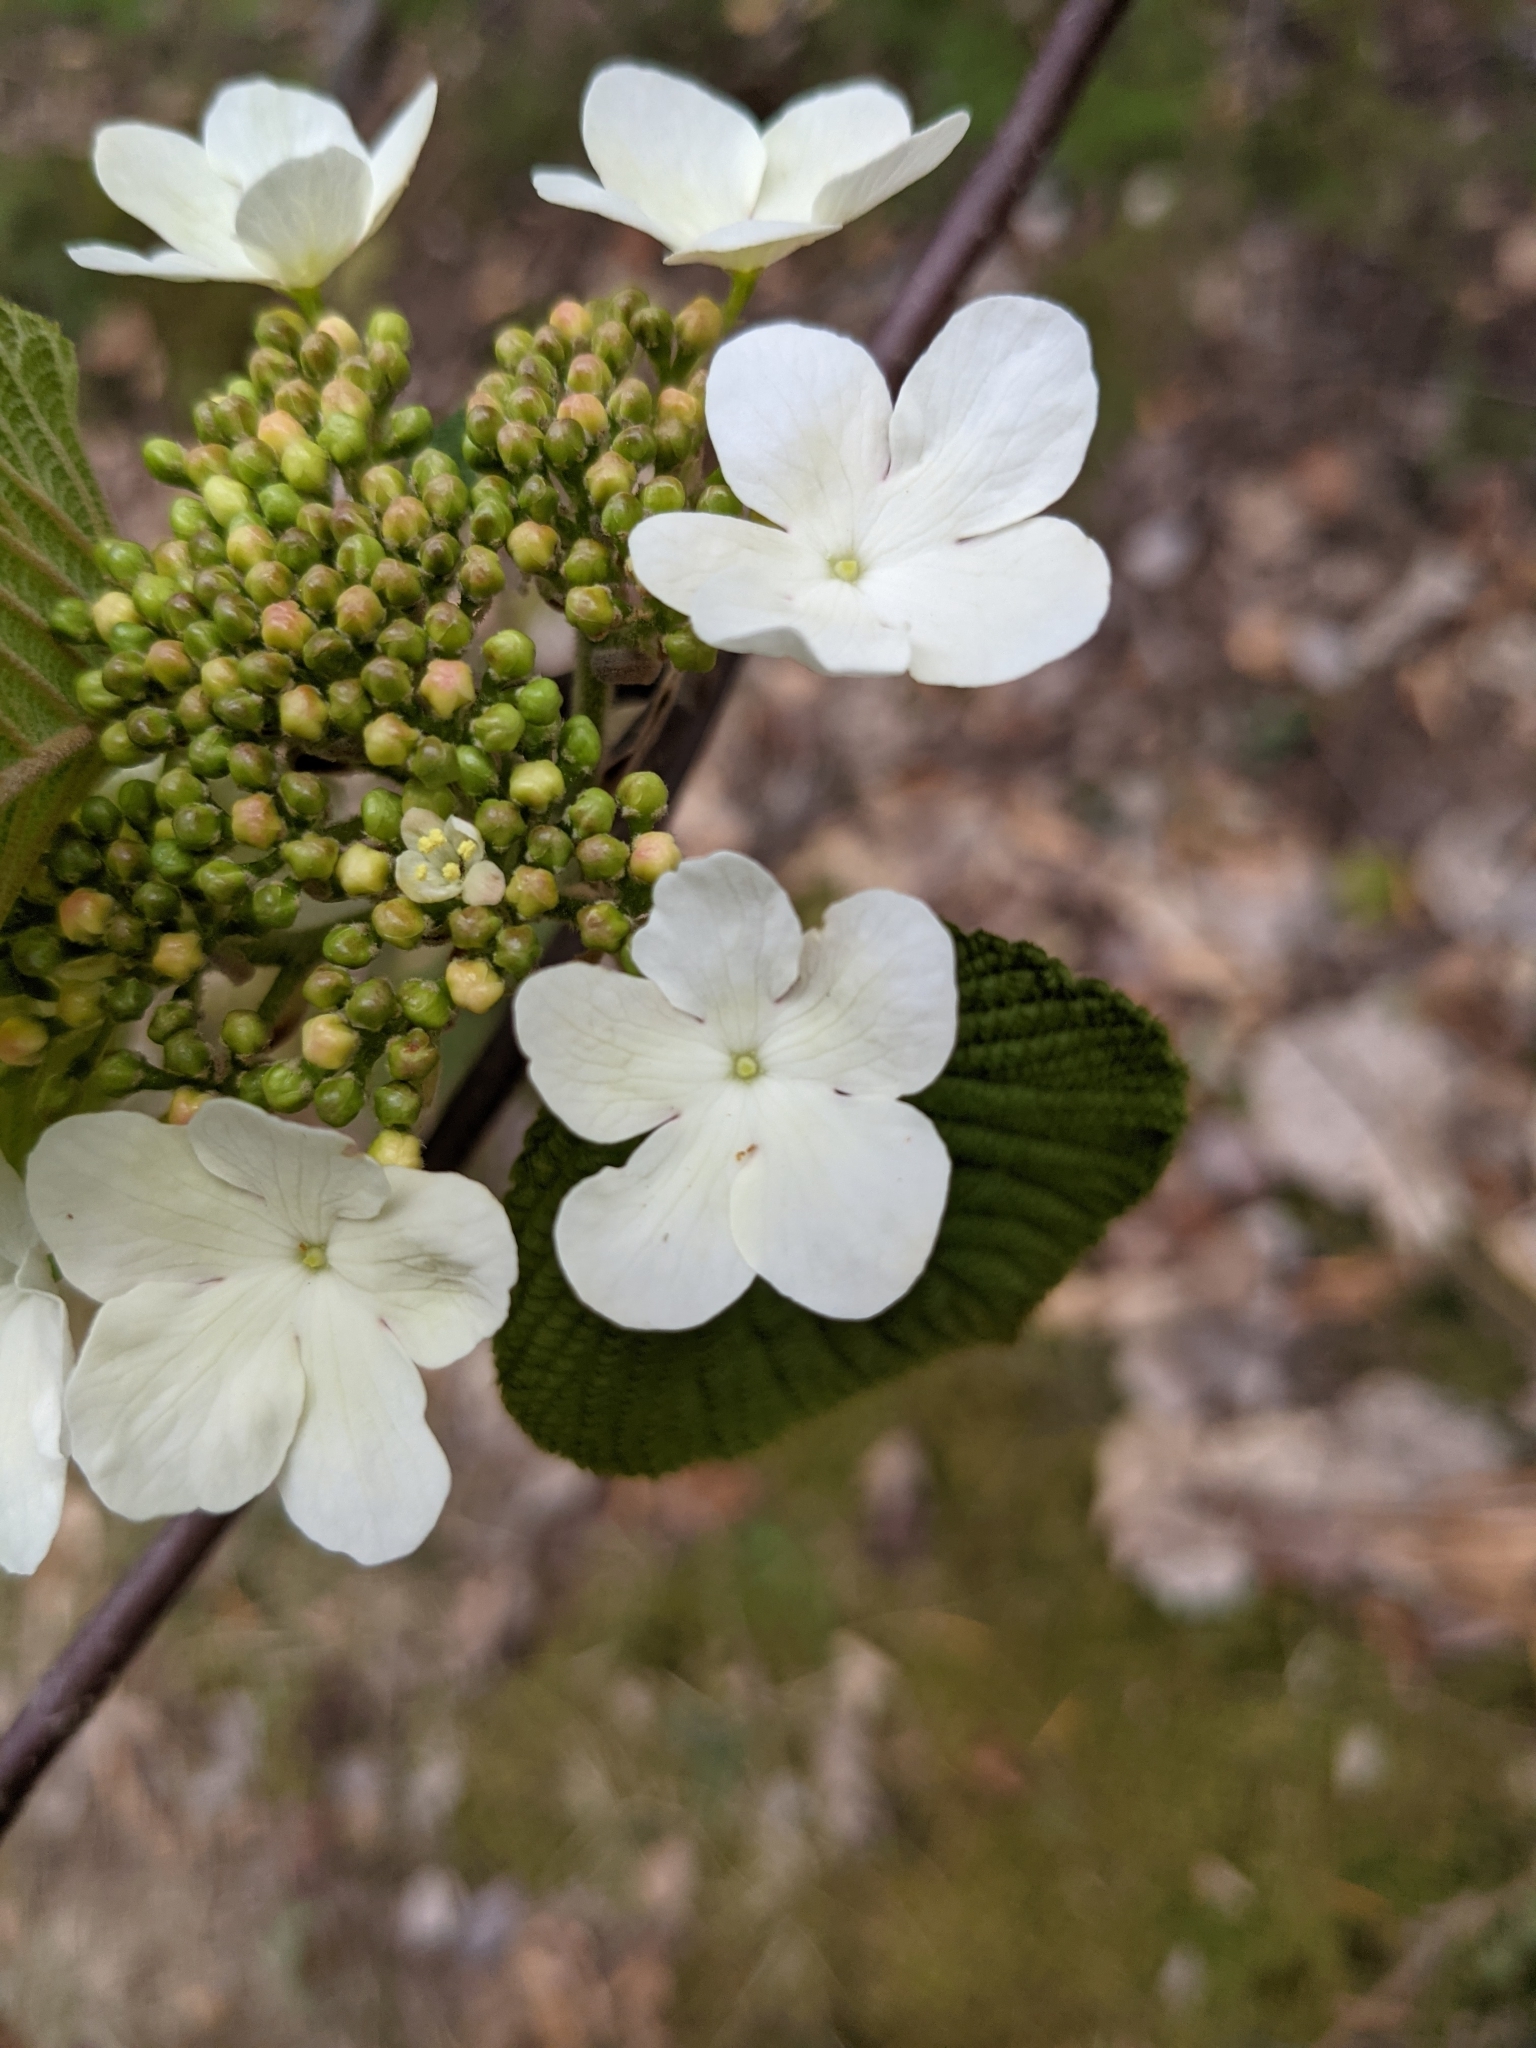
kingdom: Plantae
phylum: Tracheophyta
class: Magnoliopsida
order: Dipsacales
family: Viburnaceae
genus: Viburnum
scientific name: Viburnum lantanoides
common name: Hobblebush
